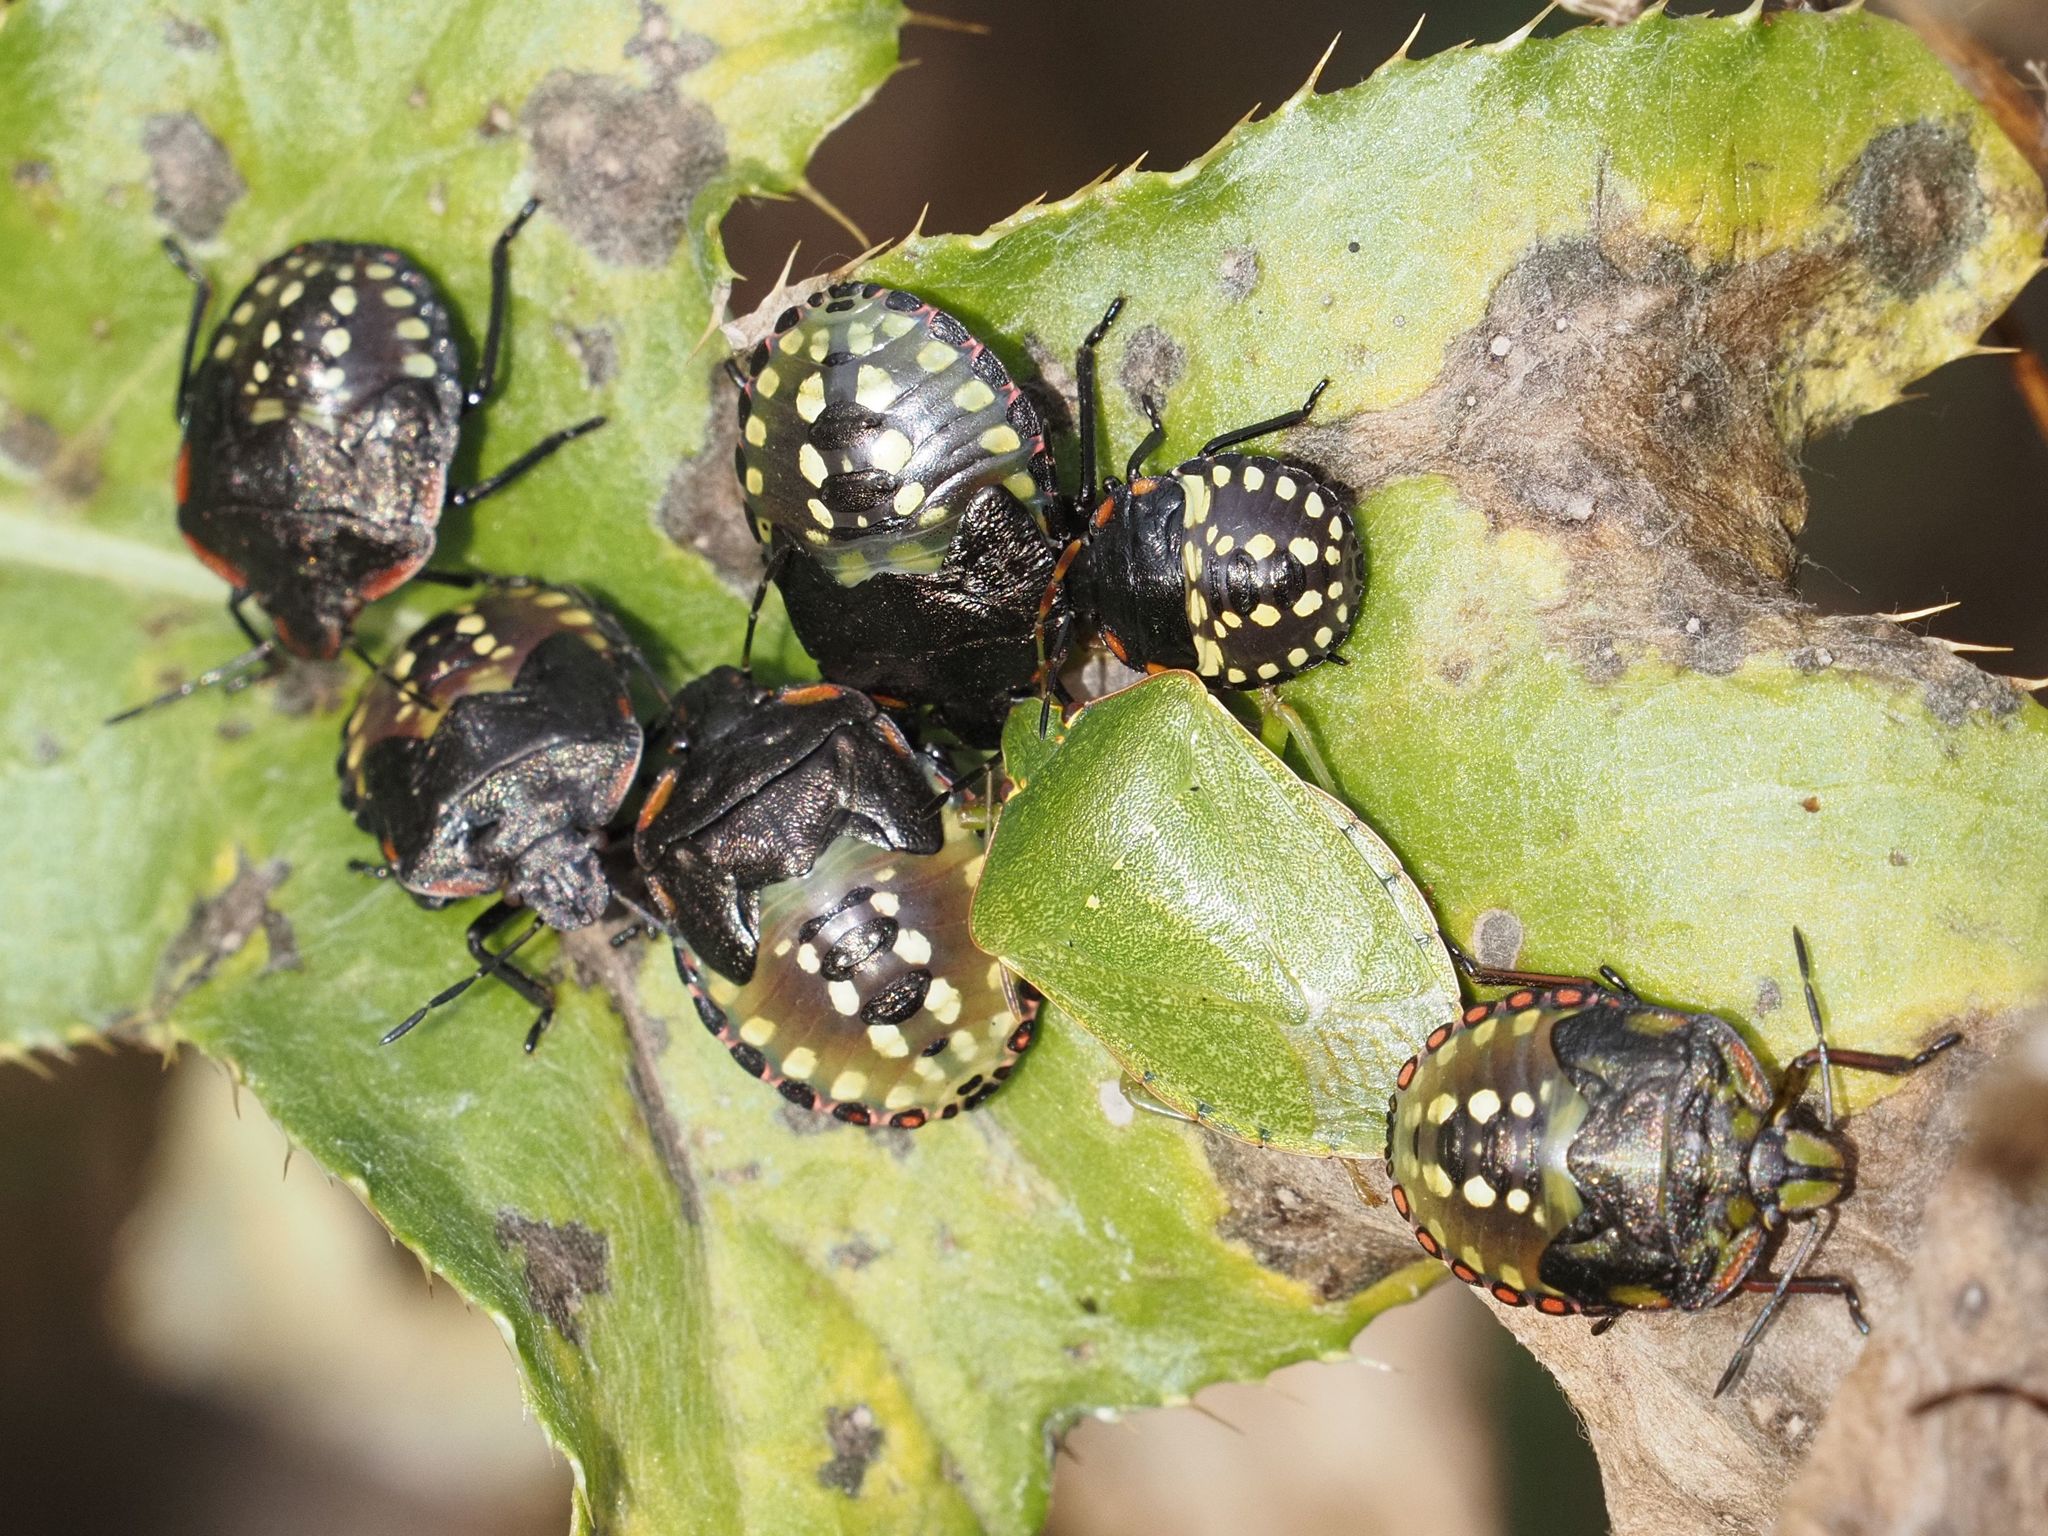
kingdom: Animalia
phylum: Arthropoda
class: Insecta
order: Hemiptera
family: Pentatomidae
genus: Nezara
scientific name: Nezara viridula
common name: Southern green stink bug
